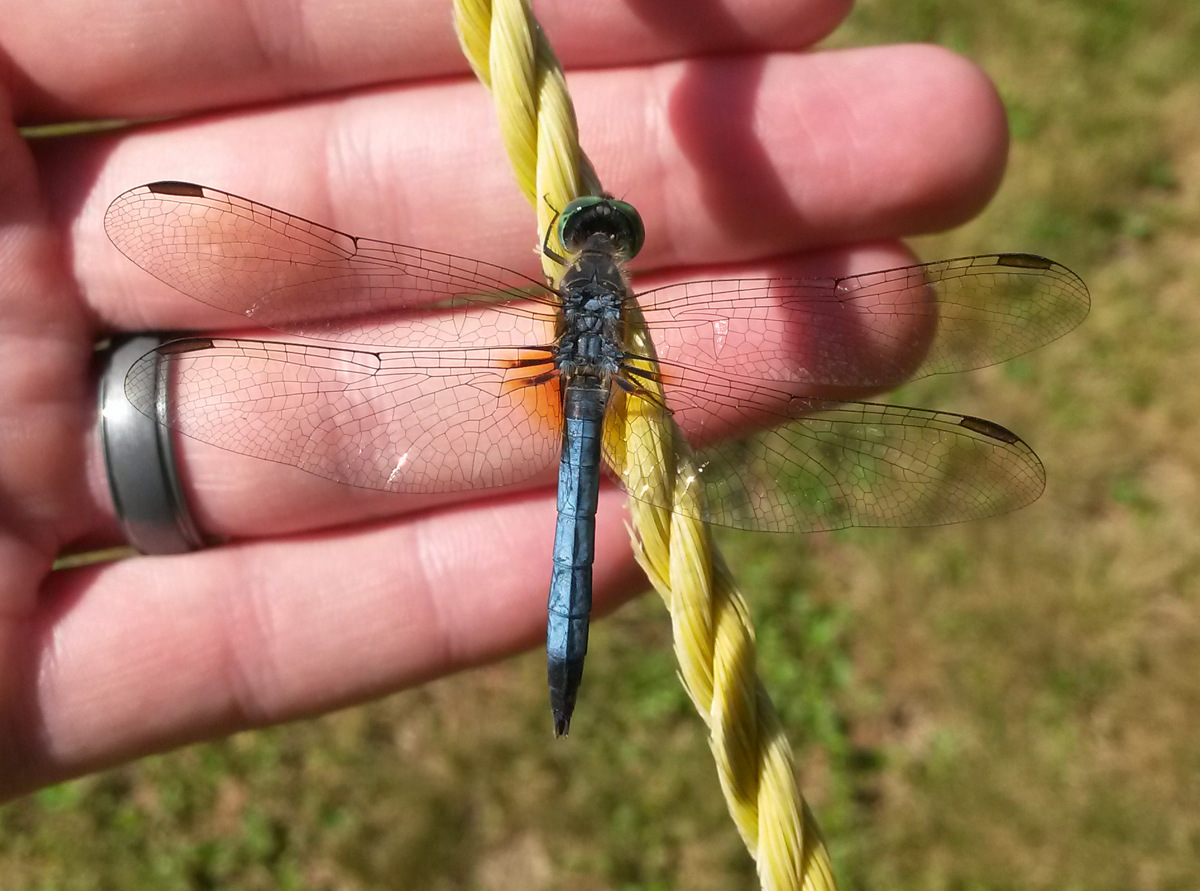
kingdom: Animalia
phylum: Arthropoda
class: Insecta
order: Odonata
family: Libellulidae
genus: Pachydiplax
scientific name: Pachydiplax longipennis
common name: Blue dasher
